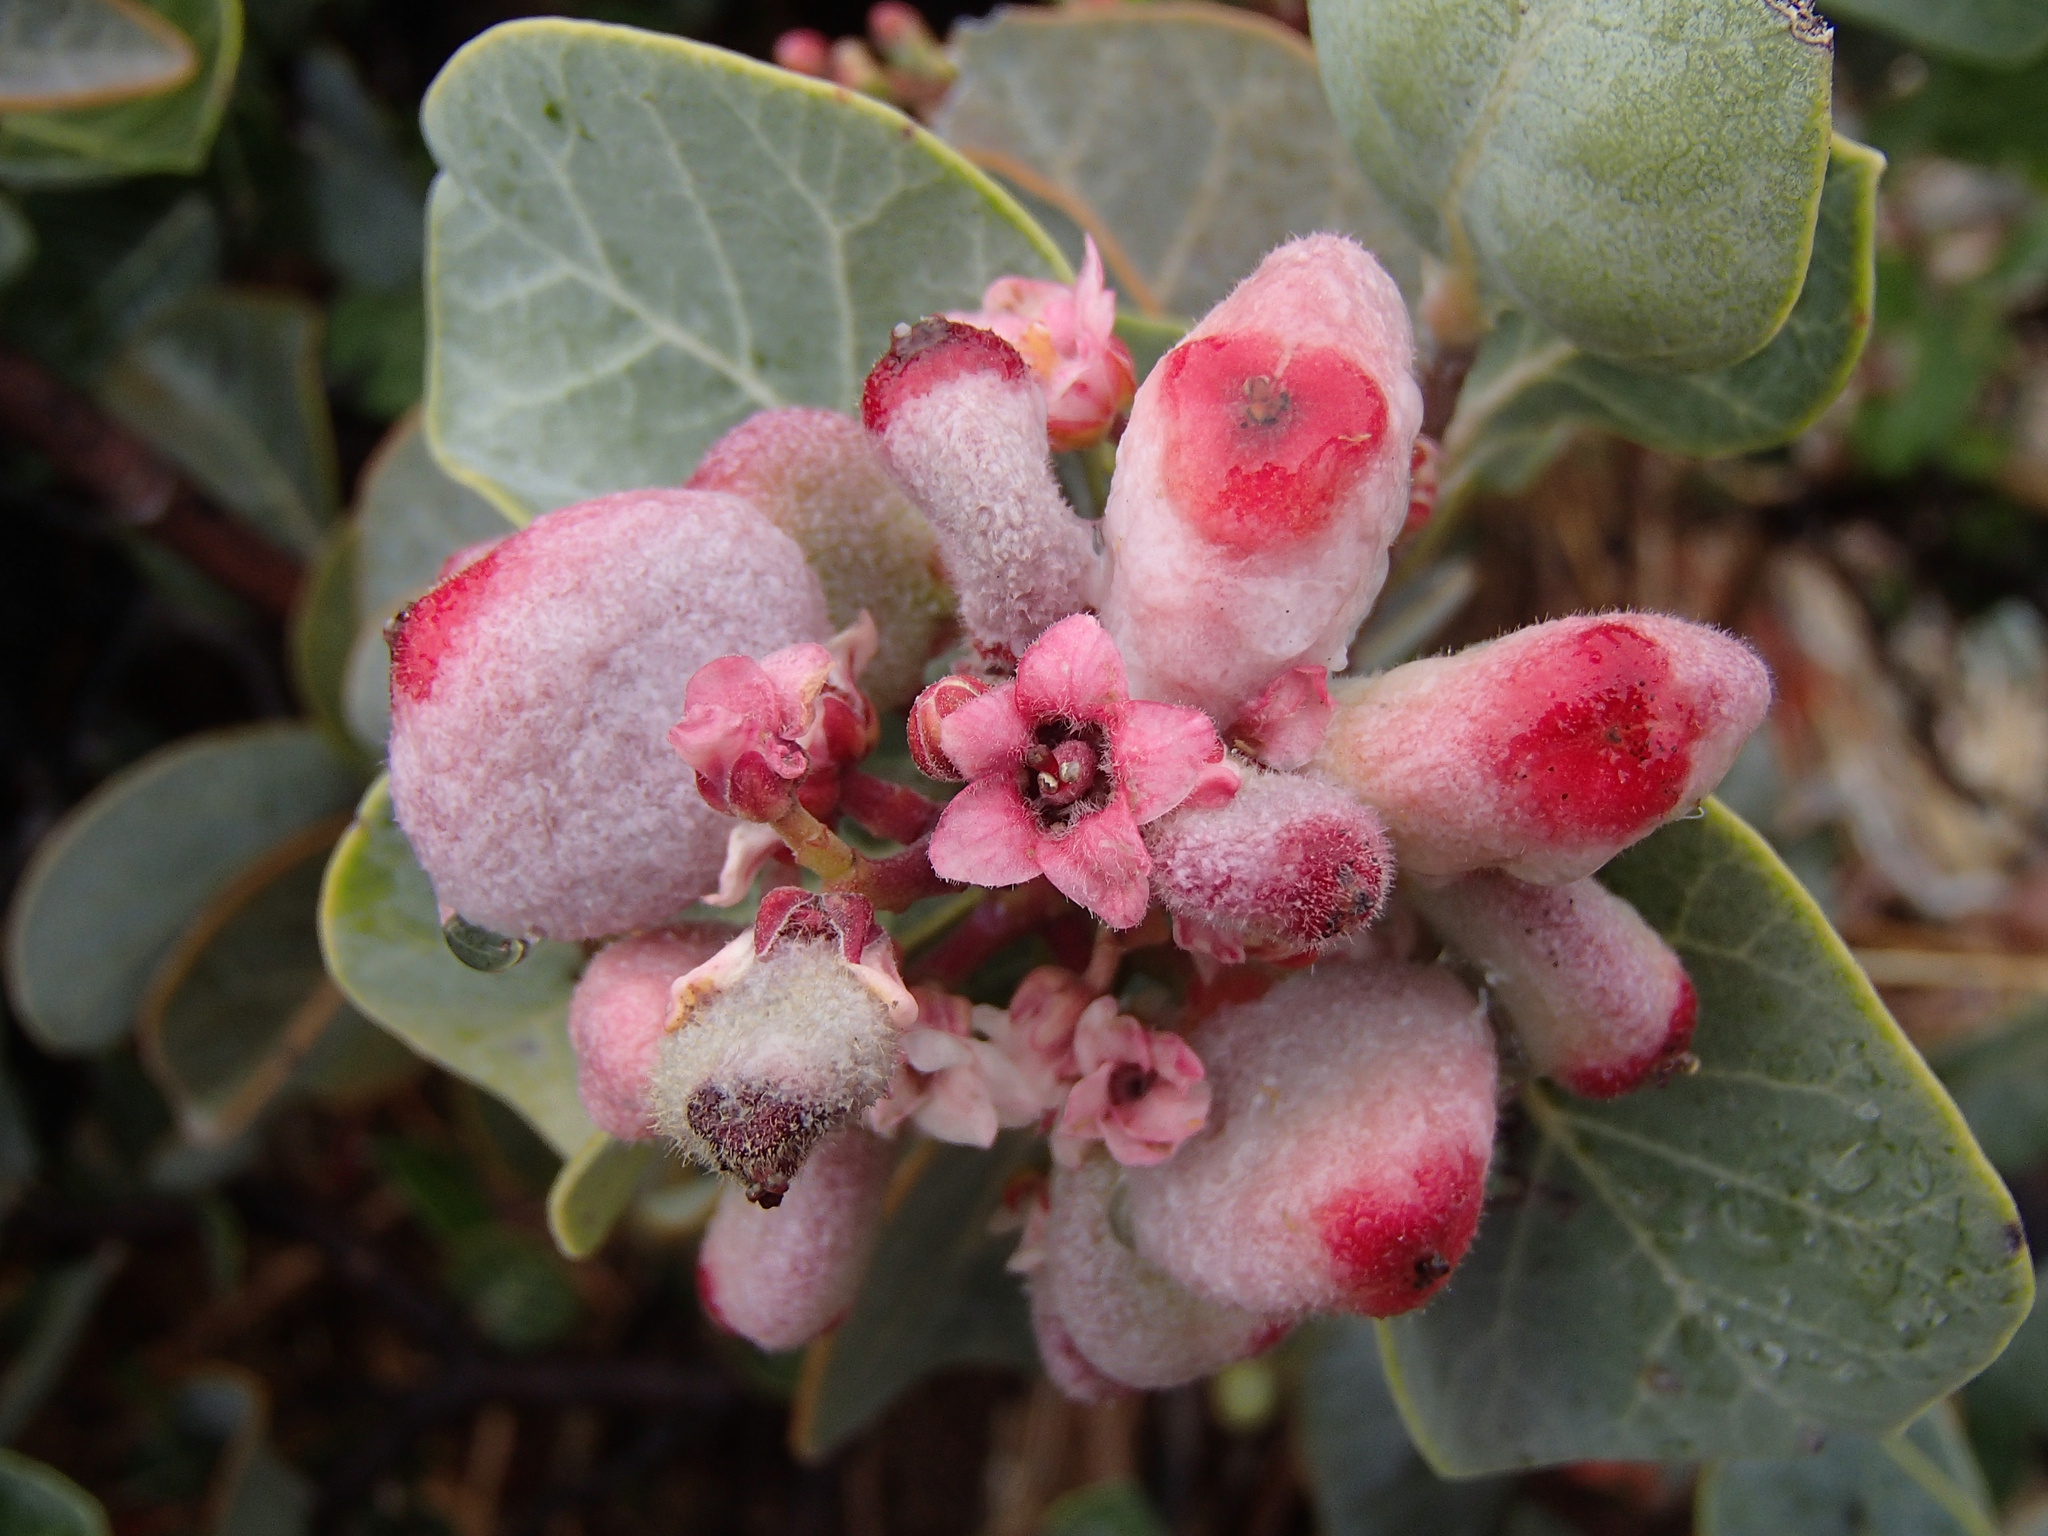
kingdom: Plantae
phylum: Tracheophyta
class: Magnoliopsida
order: Sapindales
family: Anacardiaceae
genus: Rhus
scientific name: Rhus lentii
